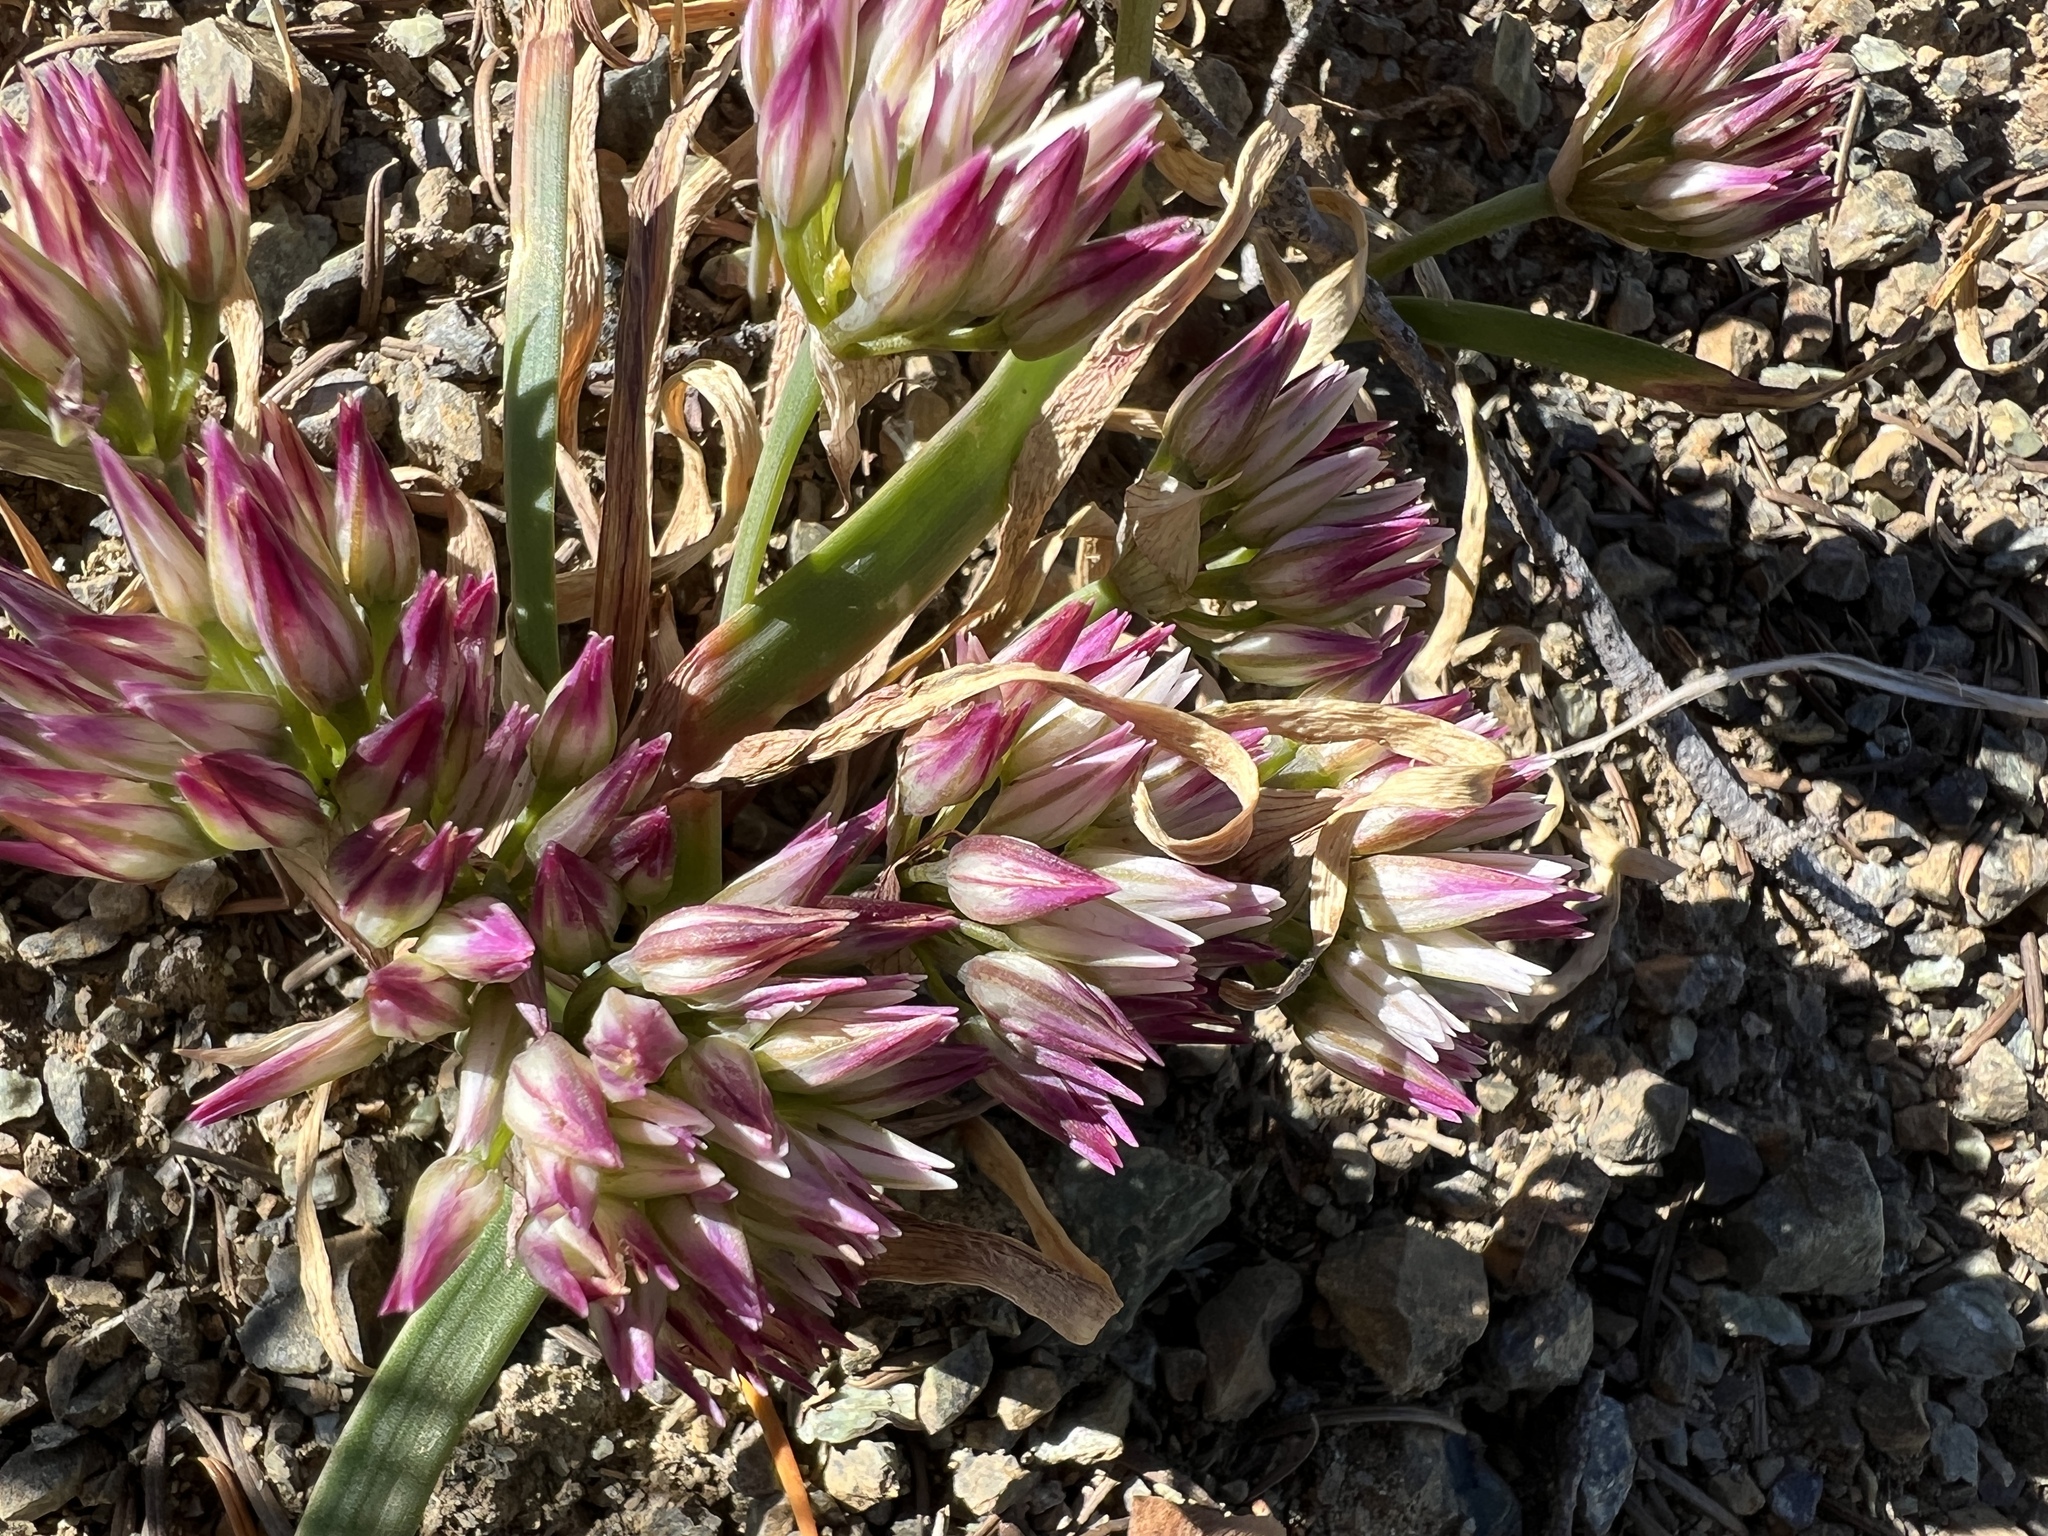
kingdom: Plantae
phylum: Tracheophyta
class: Liliopsida
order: Asparagales
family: Amaryllidaceae
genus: Allium
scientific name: Allium crenulatum
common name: Olympic onion
